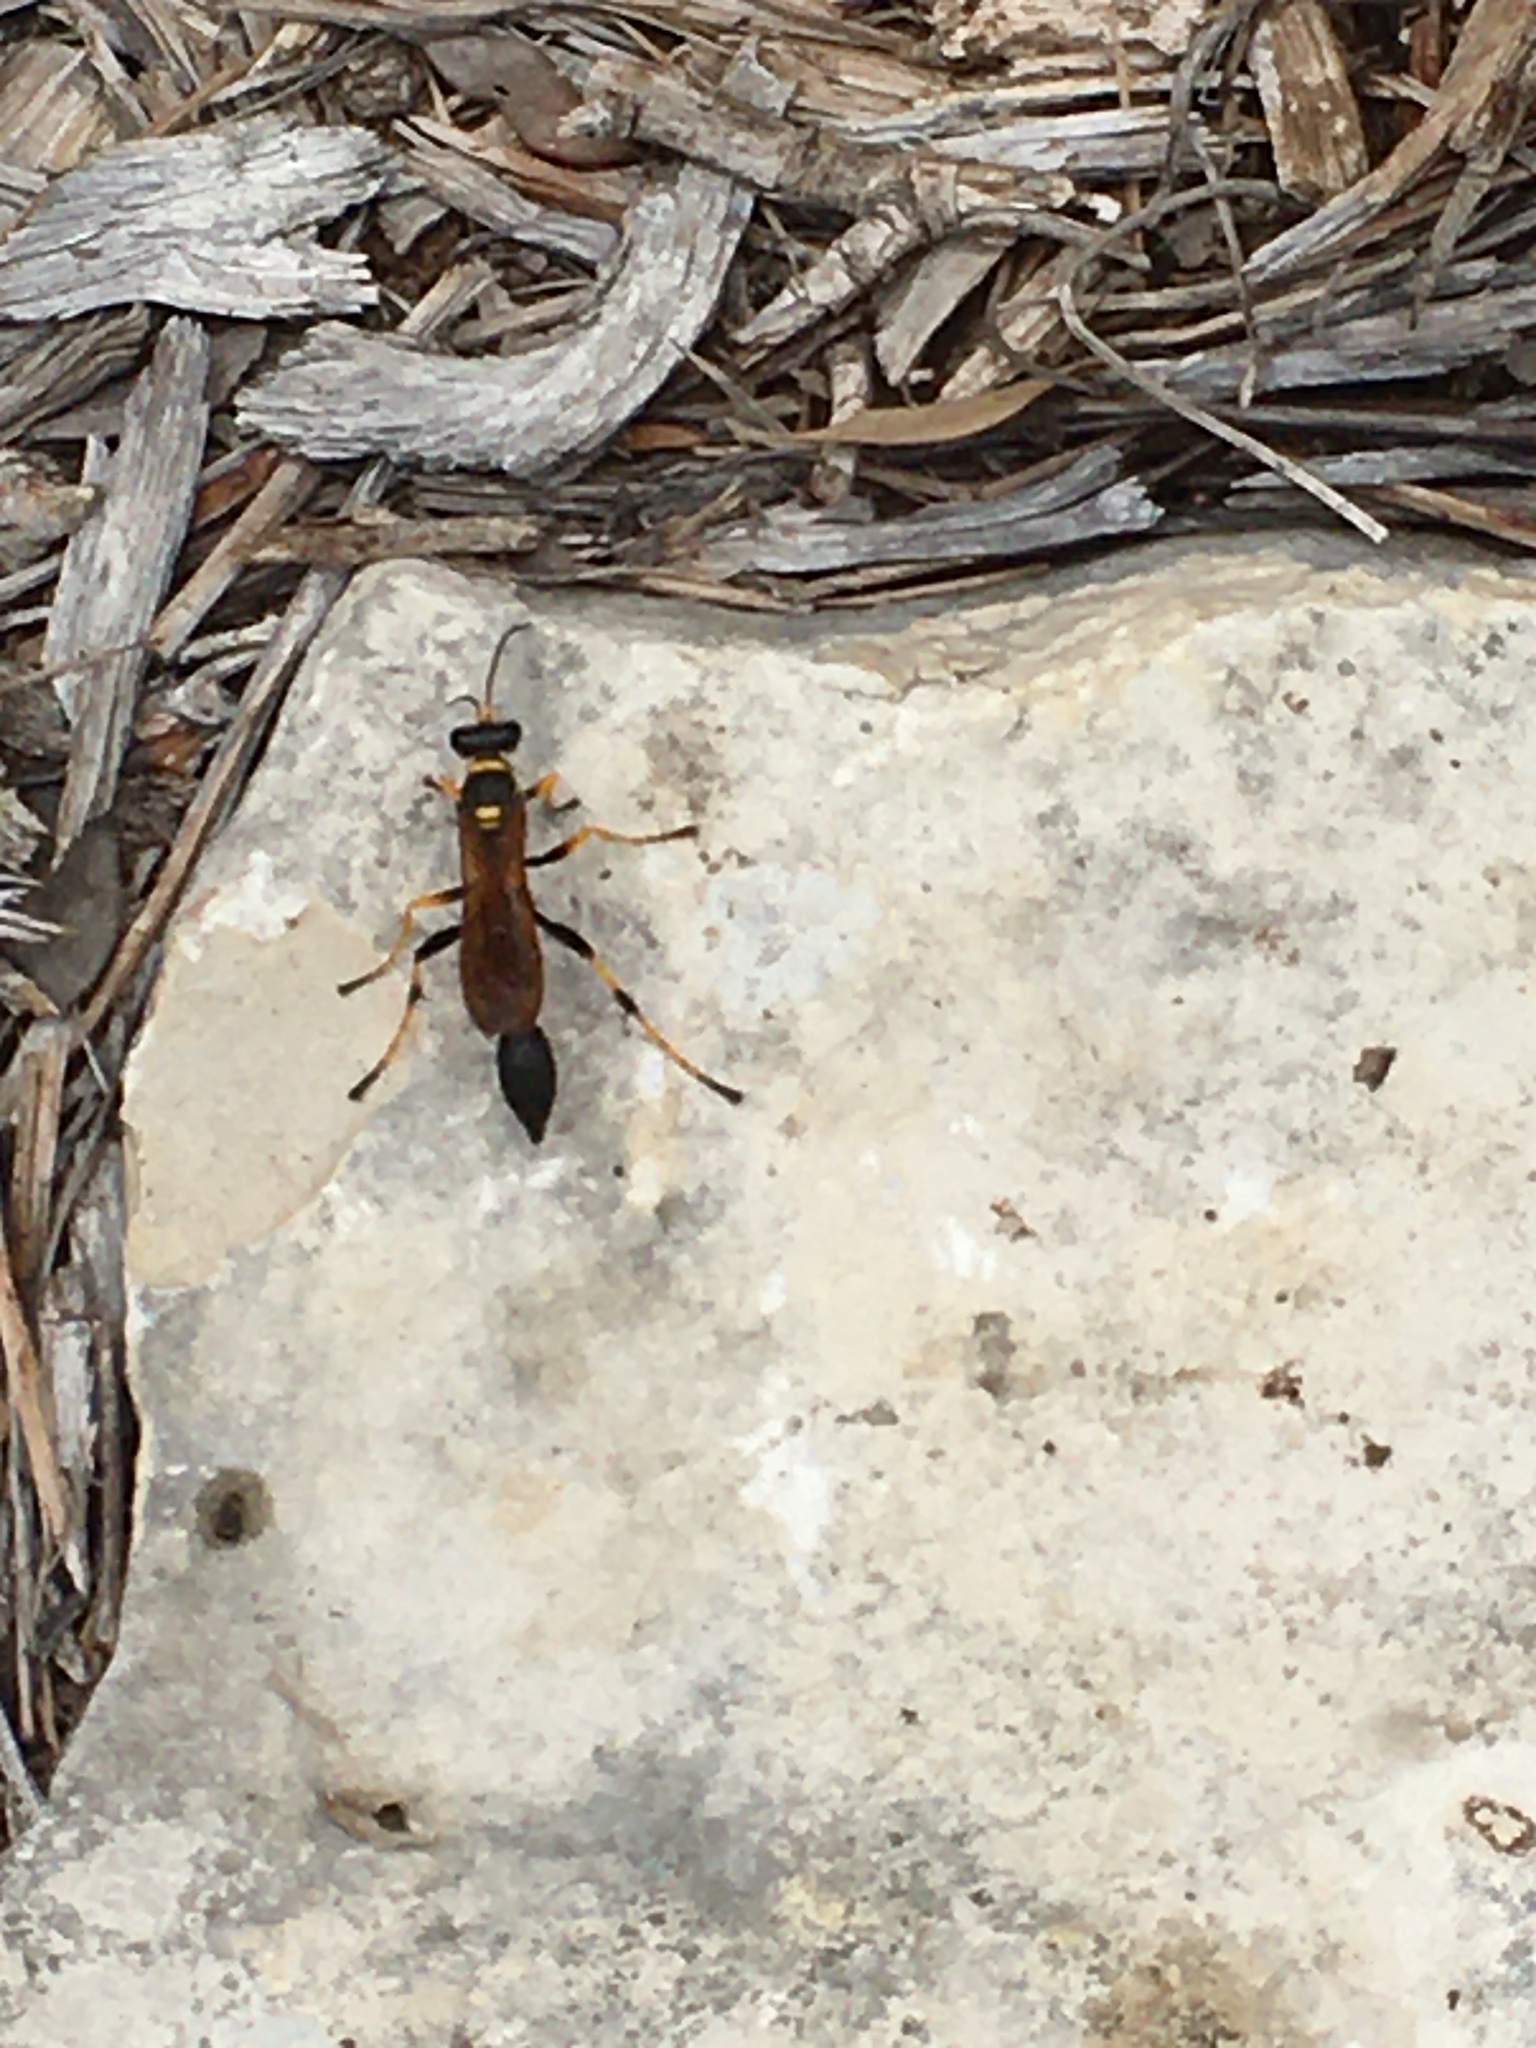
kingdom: Animalia
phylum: Arthropoda
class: Insecta
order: Hymenoptera
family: Sphecidae
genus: Sceliphron
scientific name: Sceliphron caementarium
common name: Mud dauber
